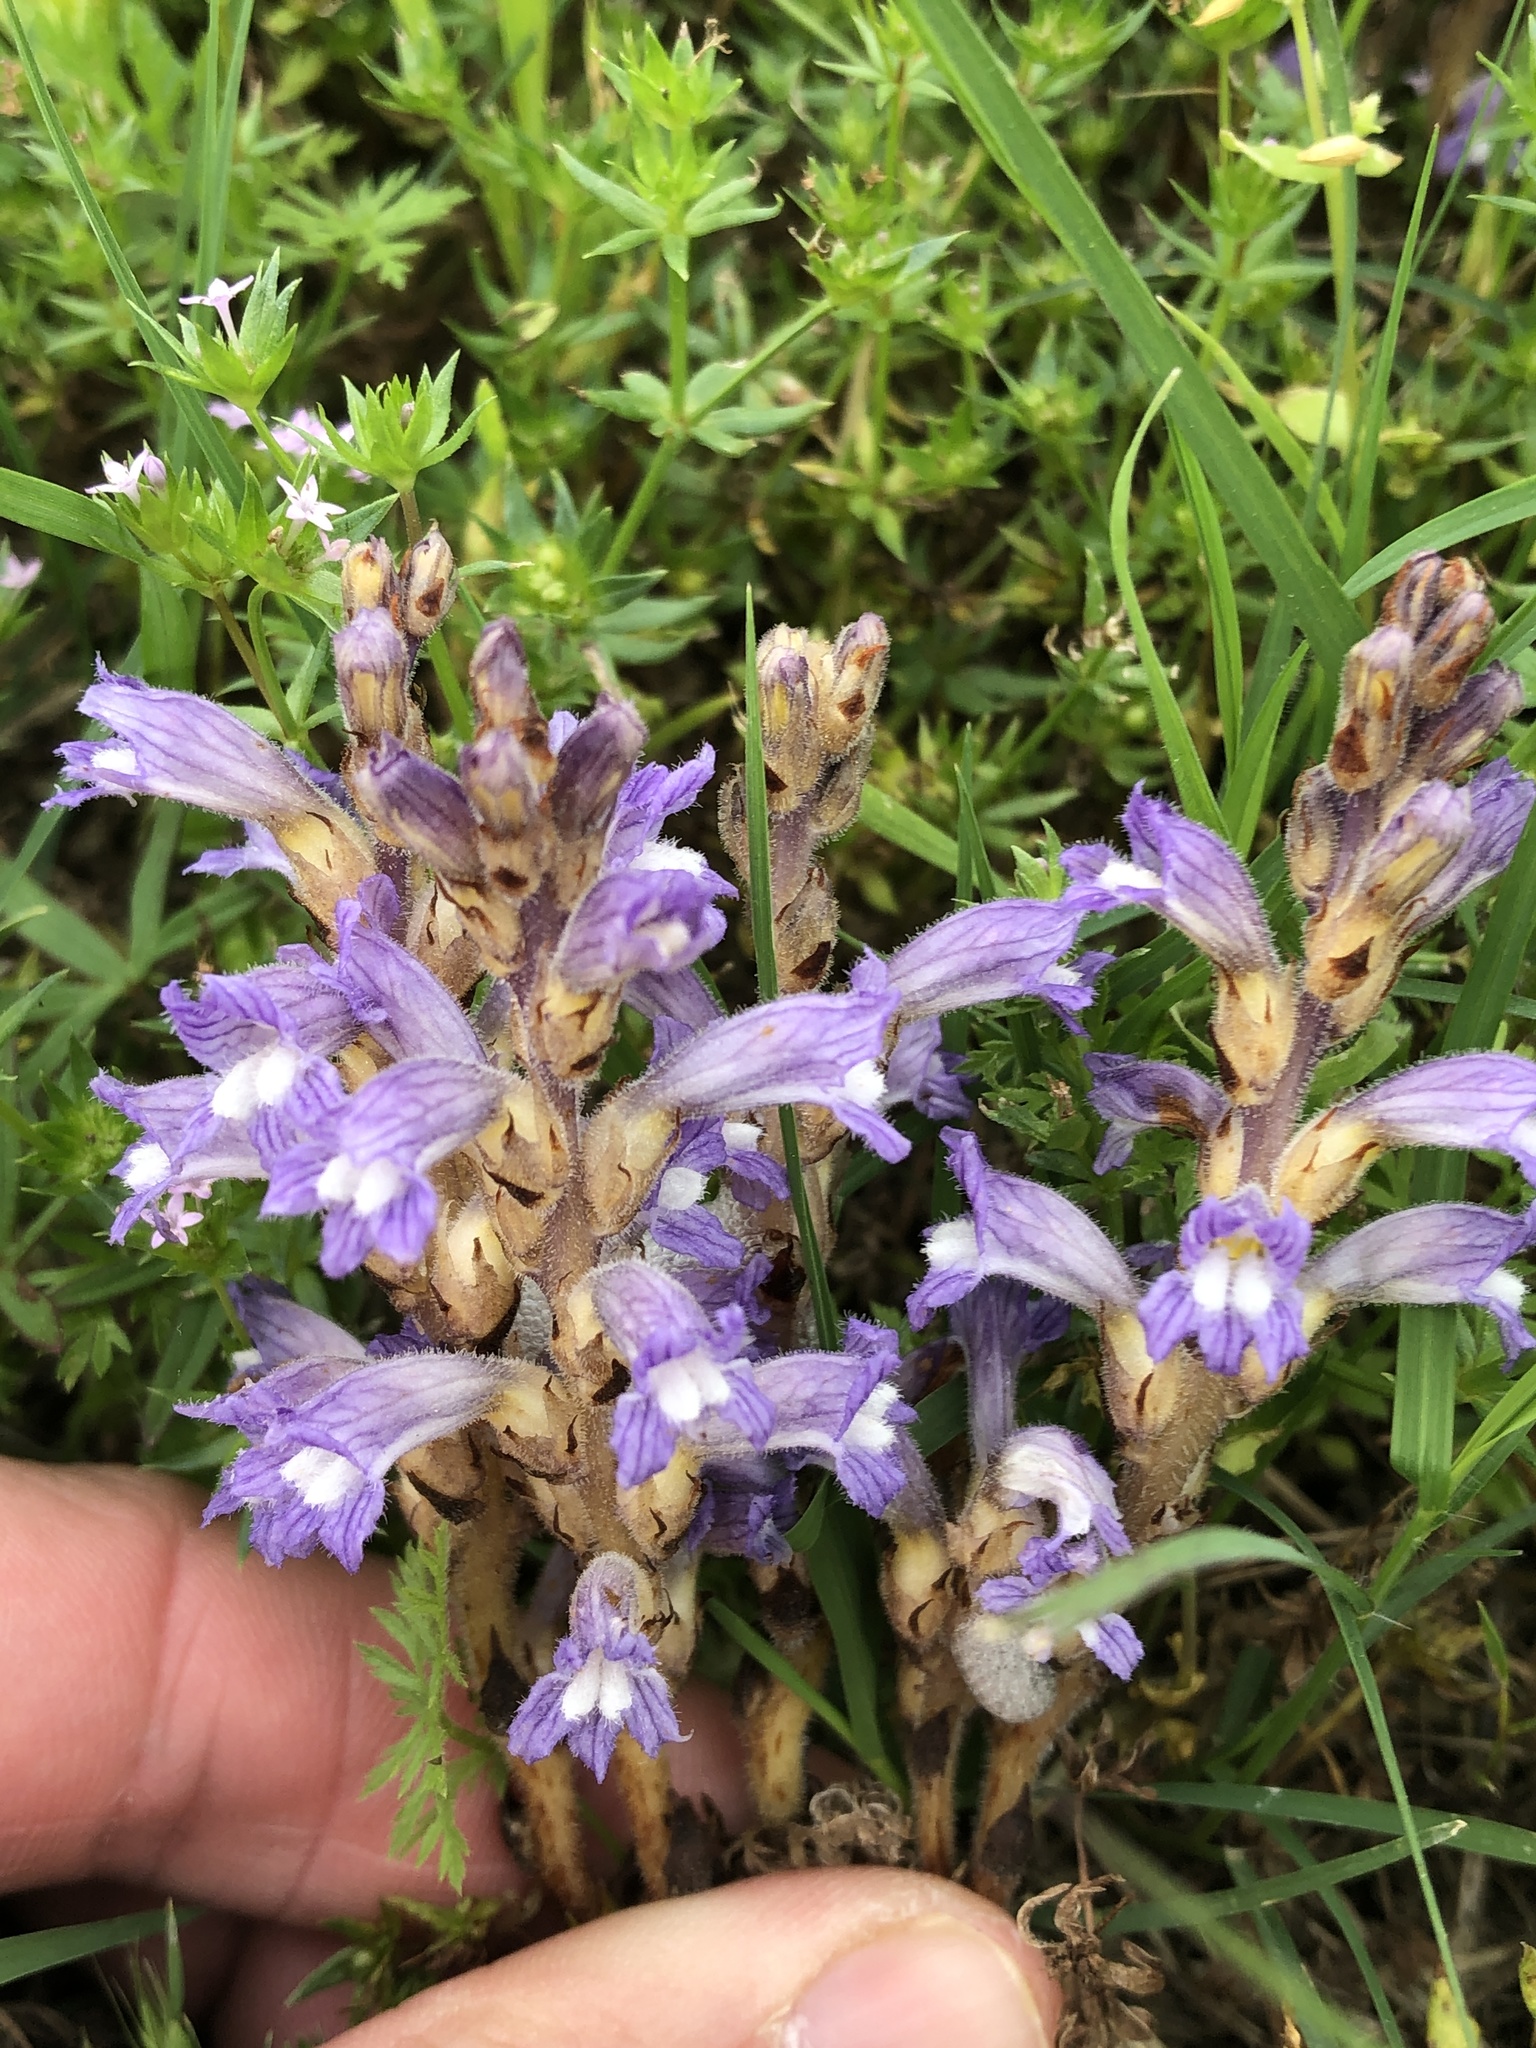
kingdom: Plantae
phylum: Tracheophyta
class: Magnoliopsida
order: Lamiales
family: Orobanchaceae
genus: Phelipanche
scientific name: Phelipanche mutelii
